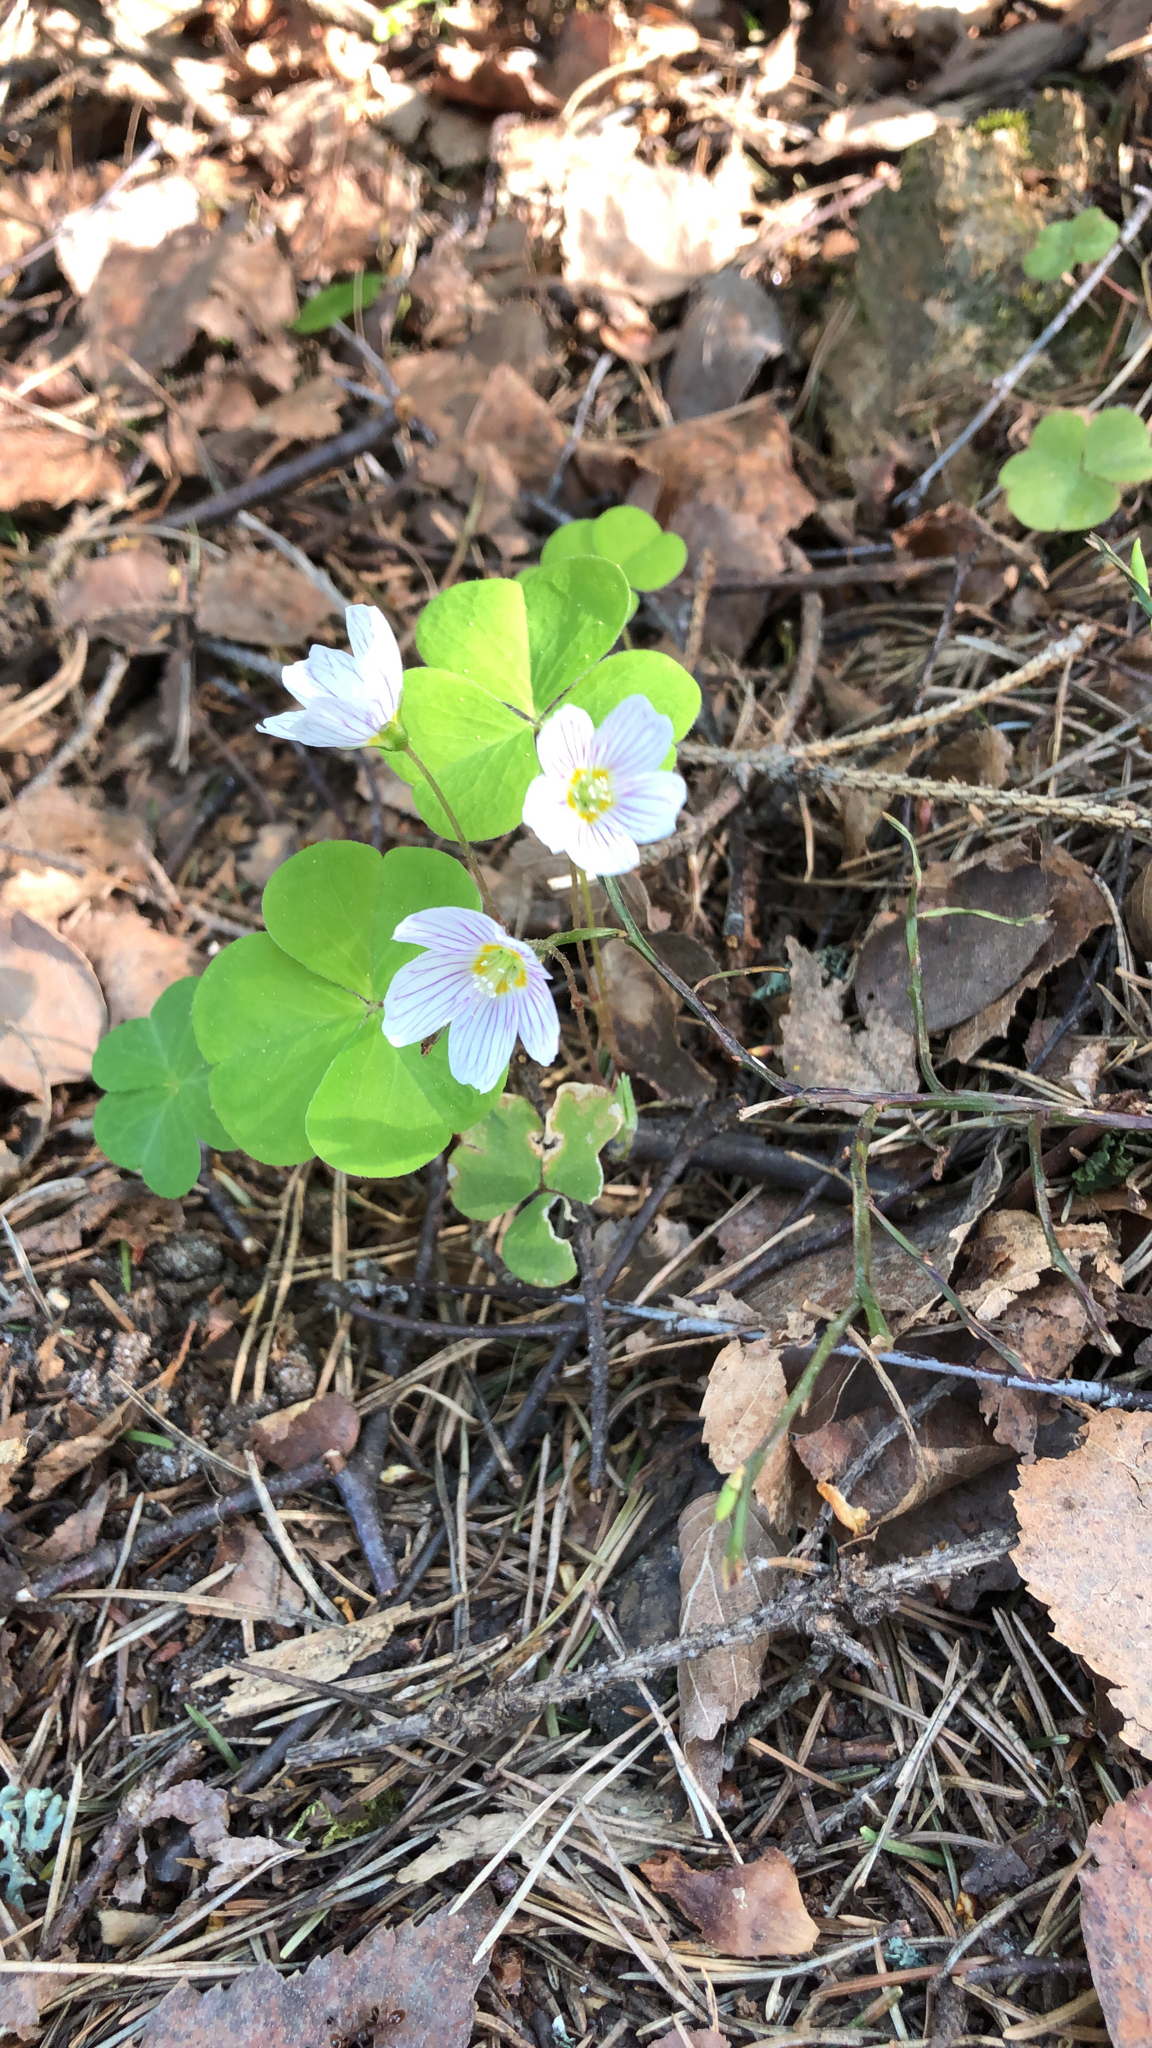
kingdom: Plantae
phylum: Tracheophyta
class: Magnoliopsida
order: Oxalidales
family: Oxalidaceae
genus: Oxalis
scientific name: Oxalis acetosella
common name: Wood-sorrel
